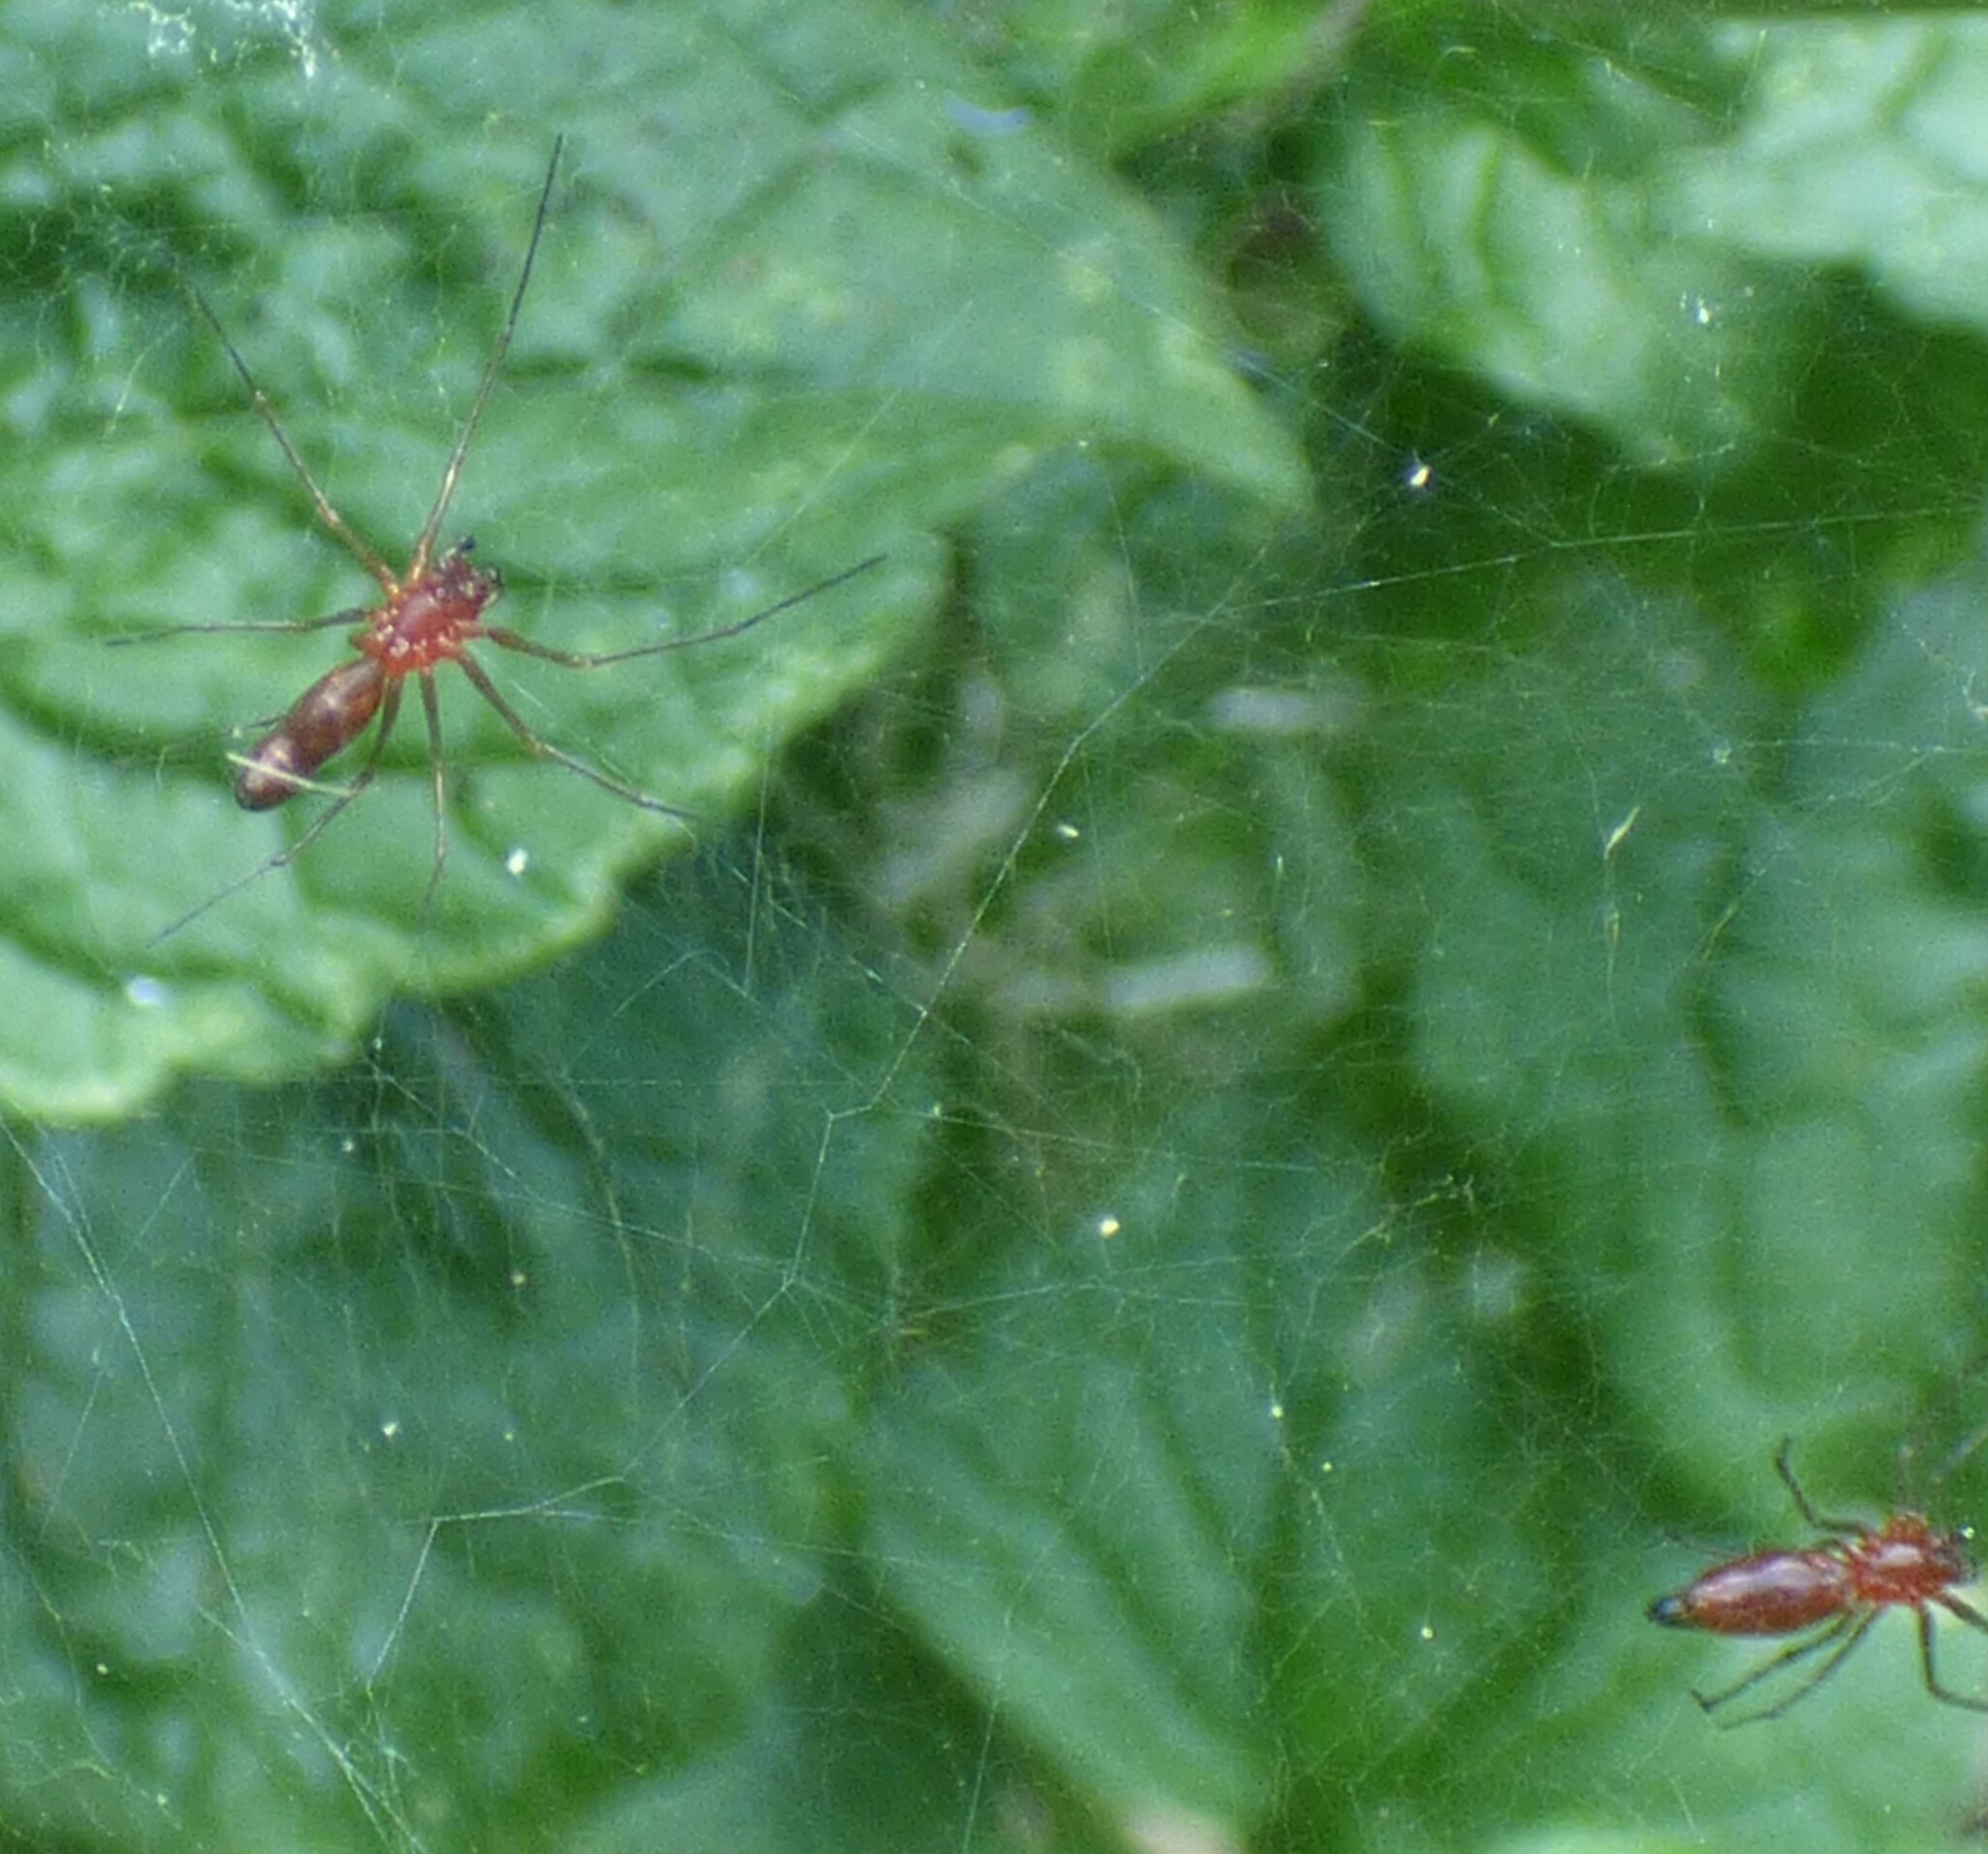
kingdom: Animalia
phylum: Arthropoda
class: Arachnida
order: Araneae
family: Linyphiidae
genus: Florinda
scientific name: Florinda coccinea
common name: Black-tailed red sheetweaver
